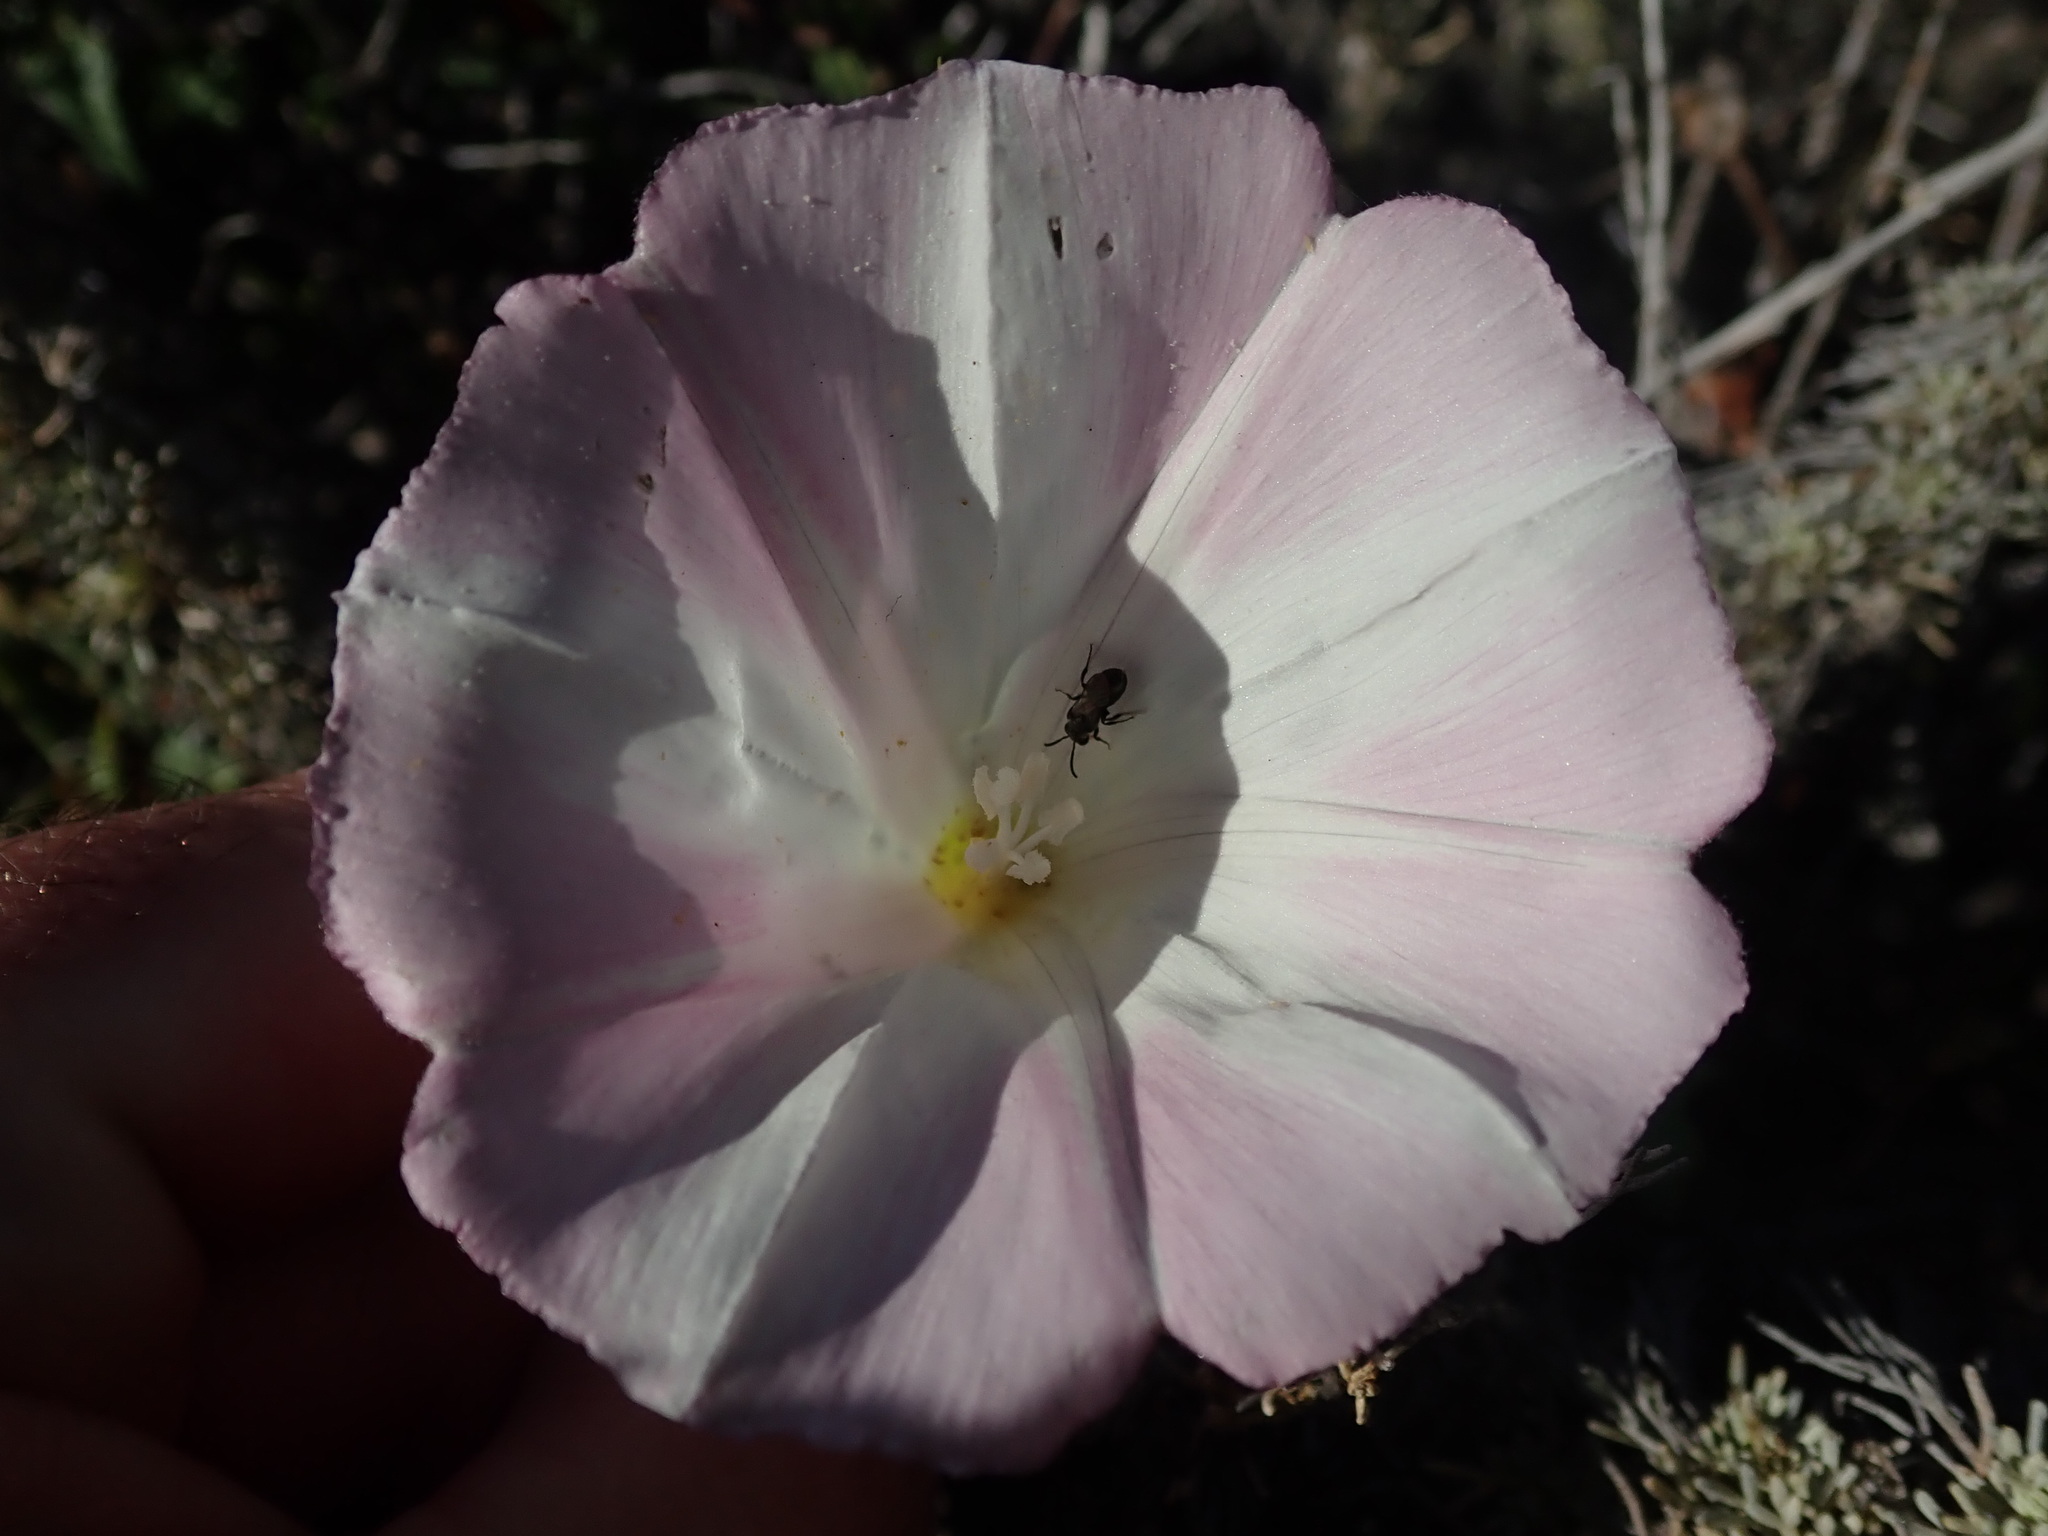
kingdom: Plantae
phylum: Tracheophyta
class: Magnoliopsida
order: Solanales
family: Convolvulaceae
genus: Calystegia
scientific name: Calystegia macrostegia
